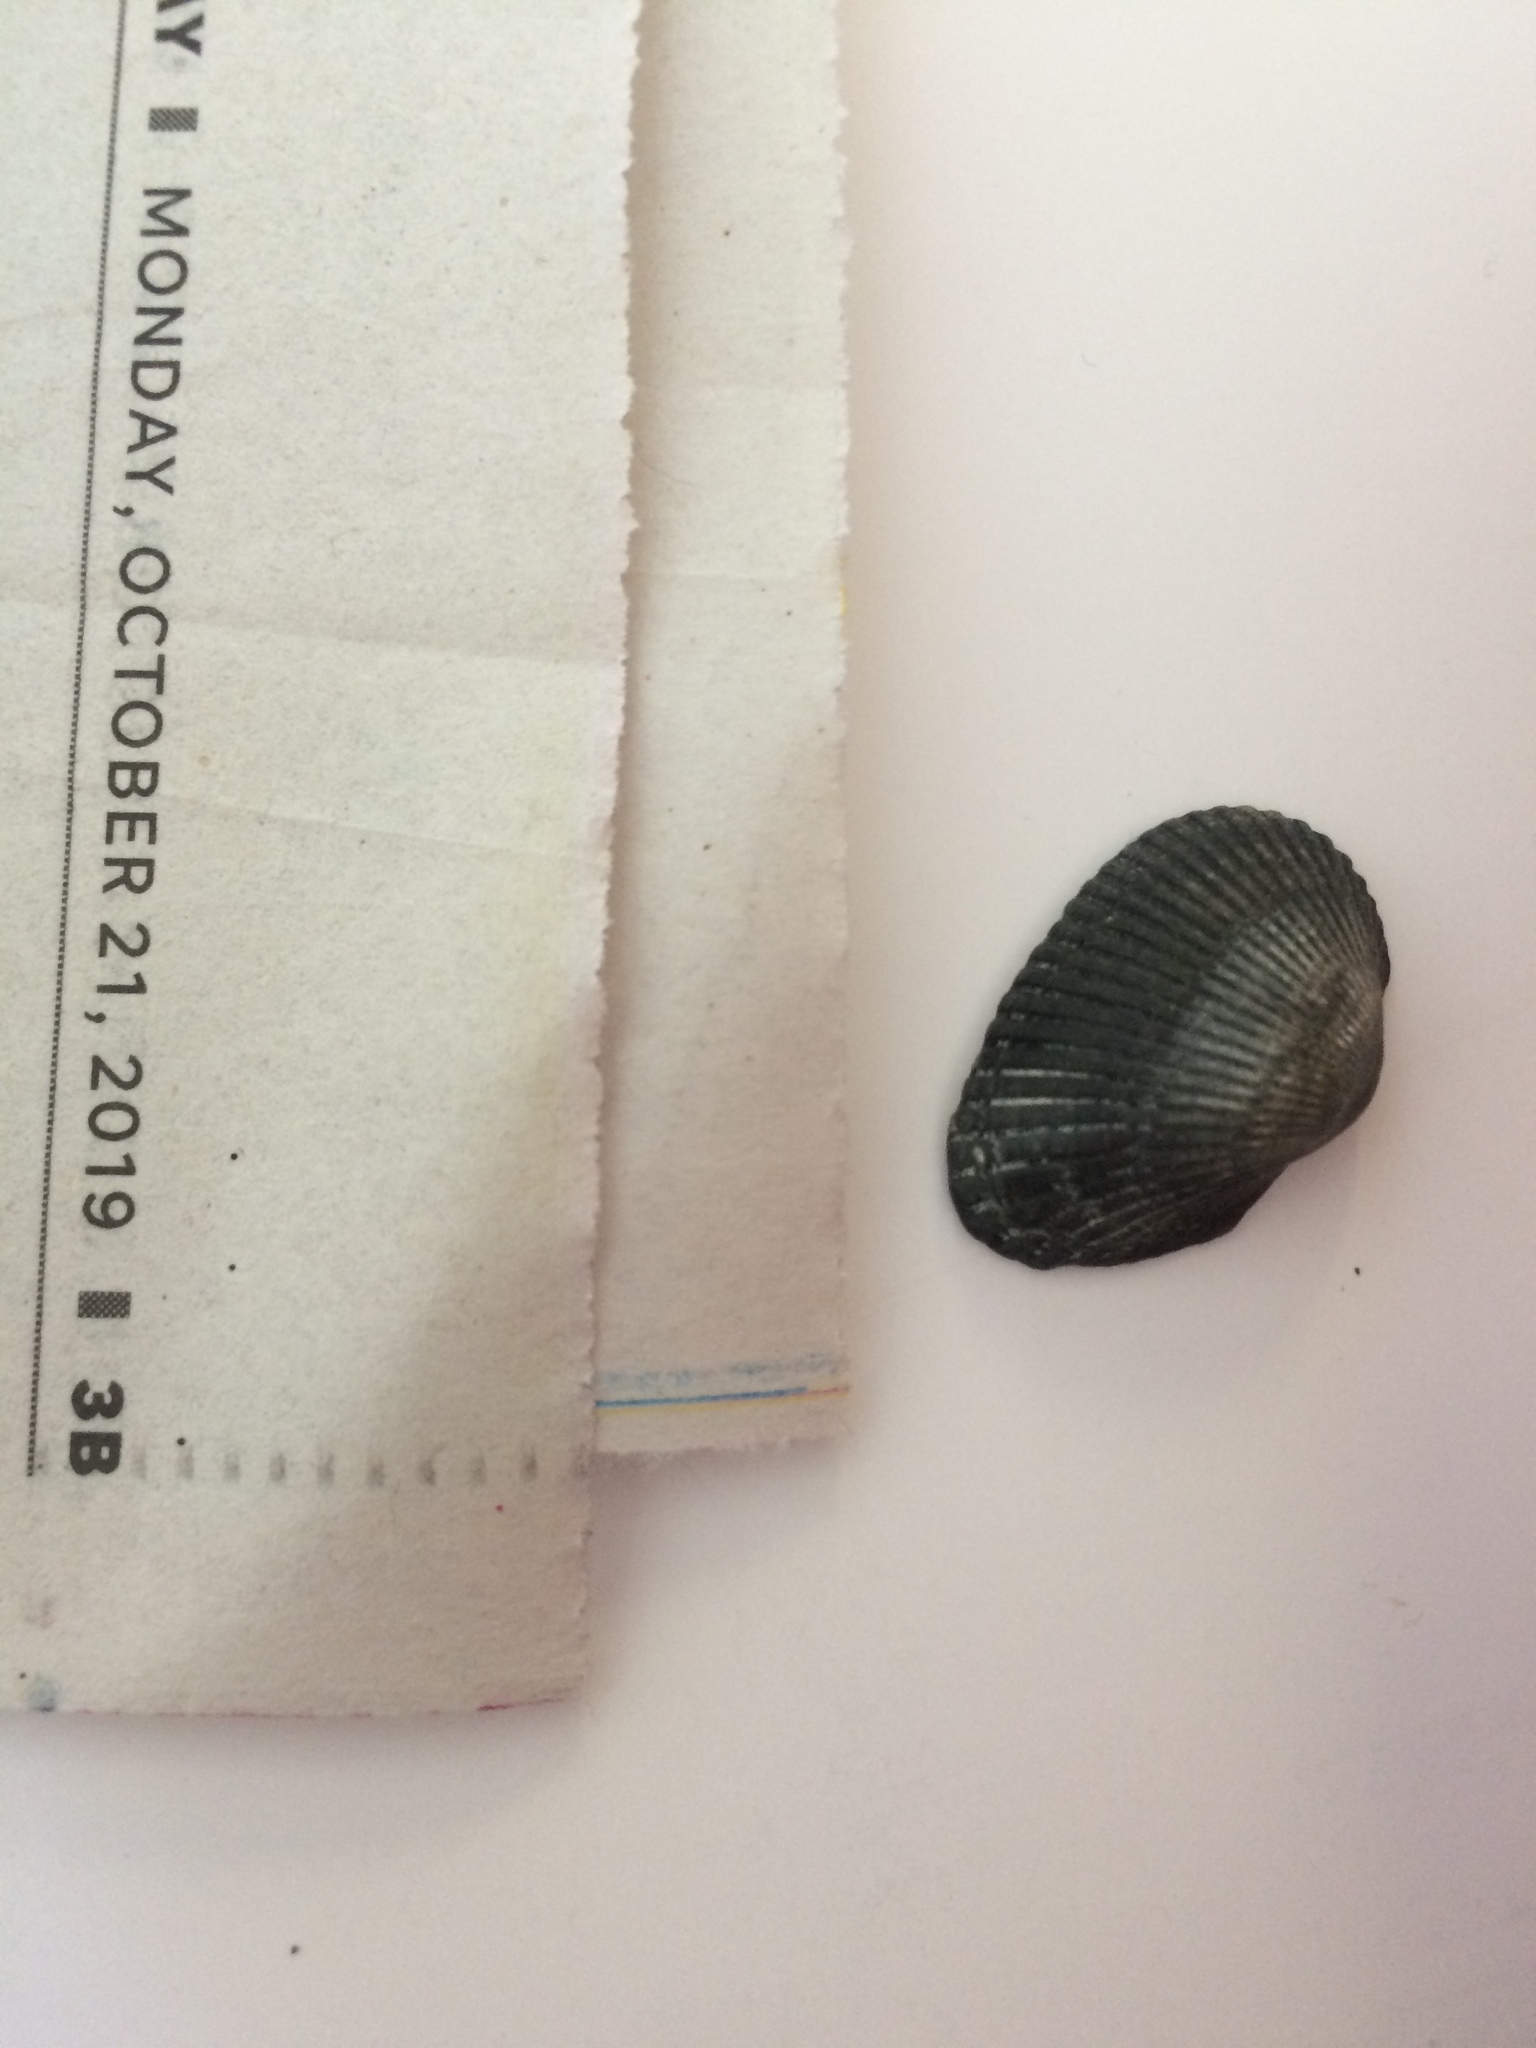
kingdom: Animalia
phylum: Mollusca
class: Bivalvia
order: Arcida
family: Arcidae
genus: Anadara
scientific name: Anadara transversa
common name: Transverse ark
